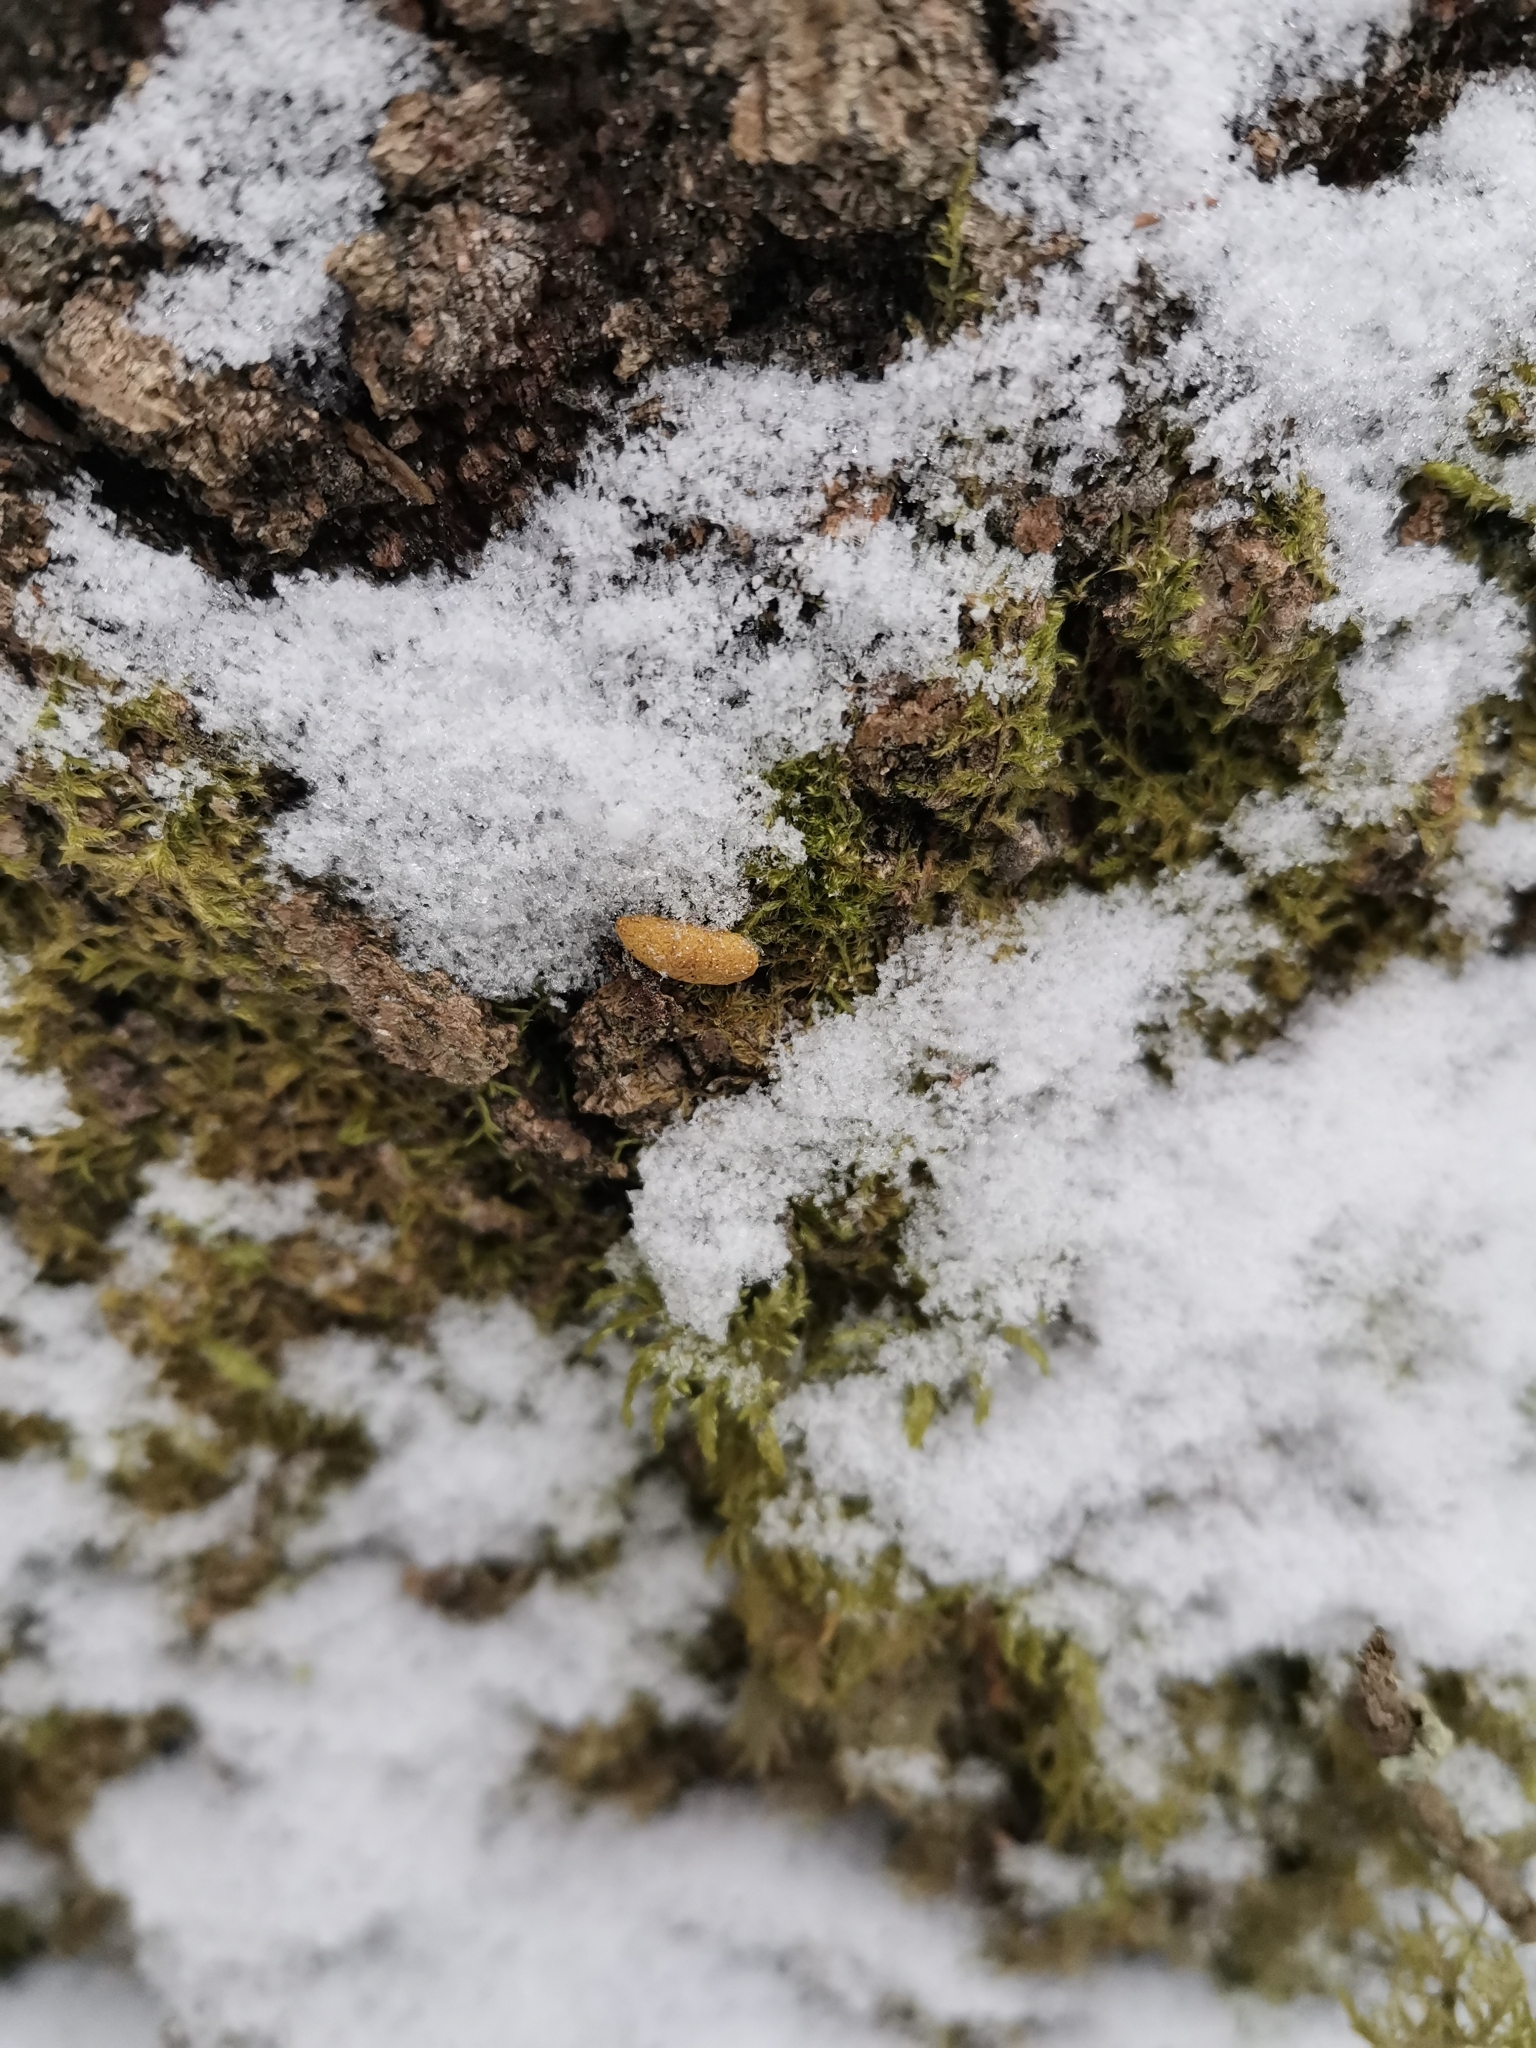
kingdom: Animalia
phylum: Chordata
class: Mammalia
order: Rodentia
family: Sciuridae
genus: Pteromys
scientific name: Pteromys volans
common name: Siberian flying squirrel
